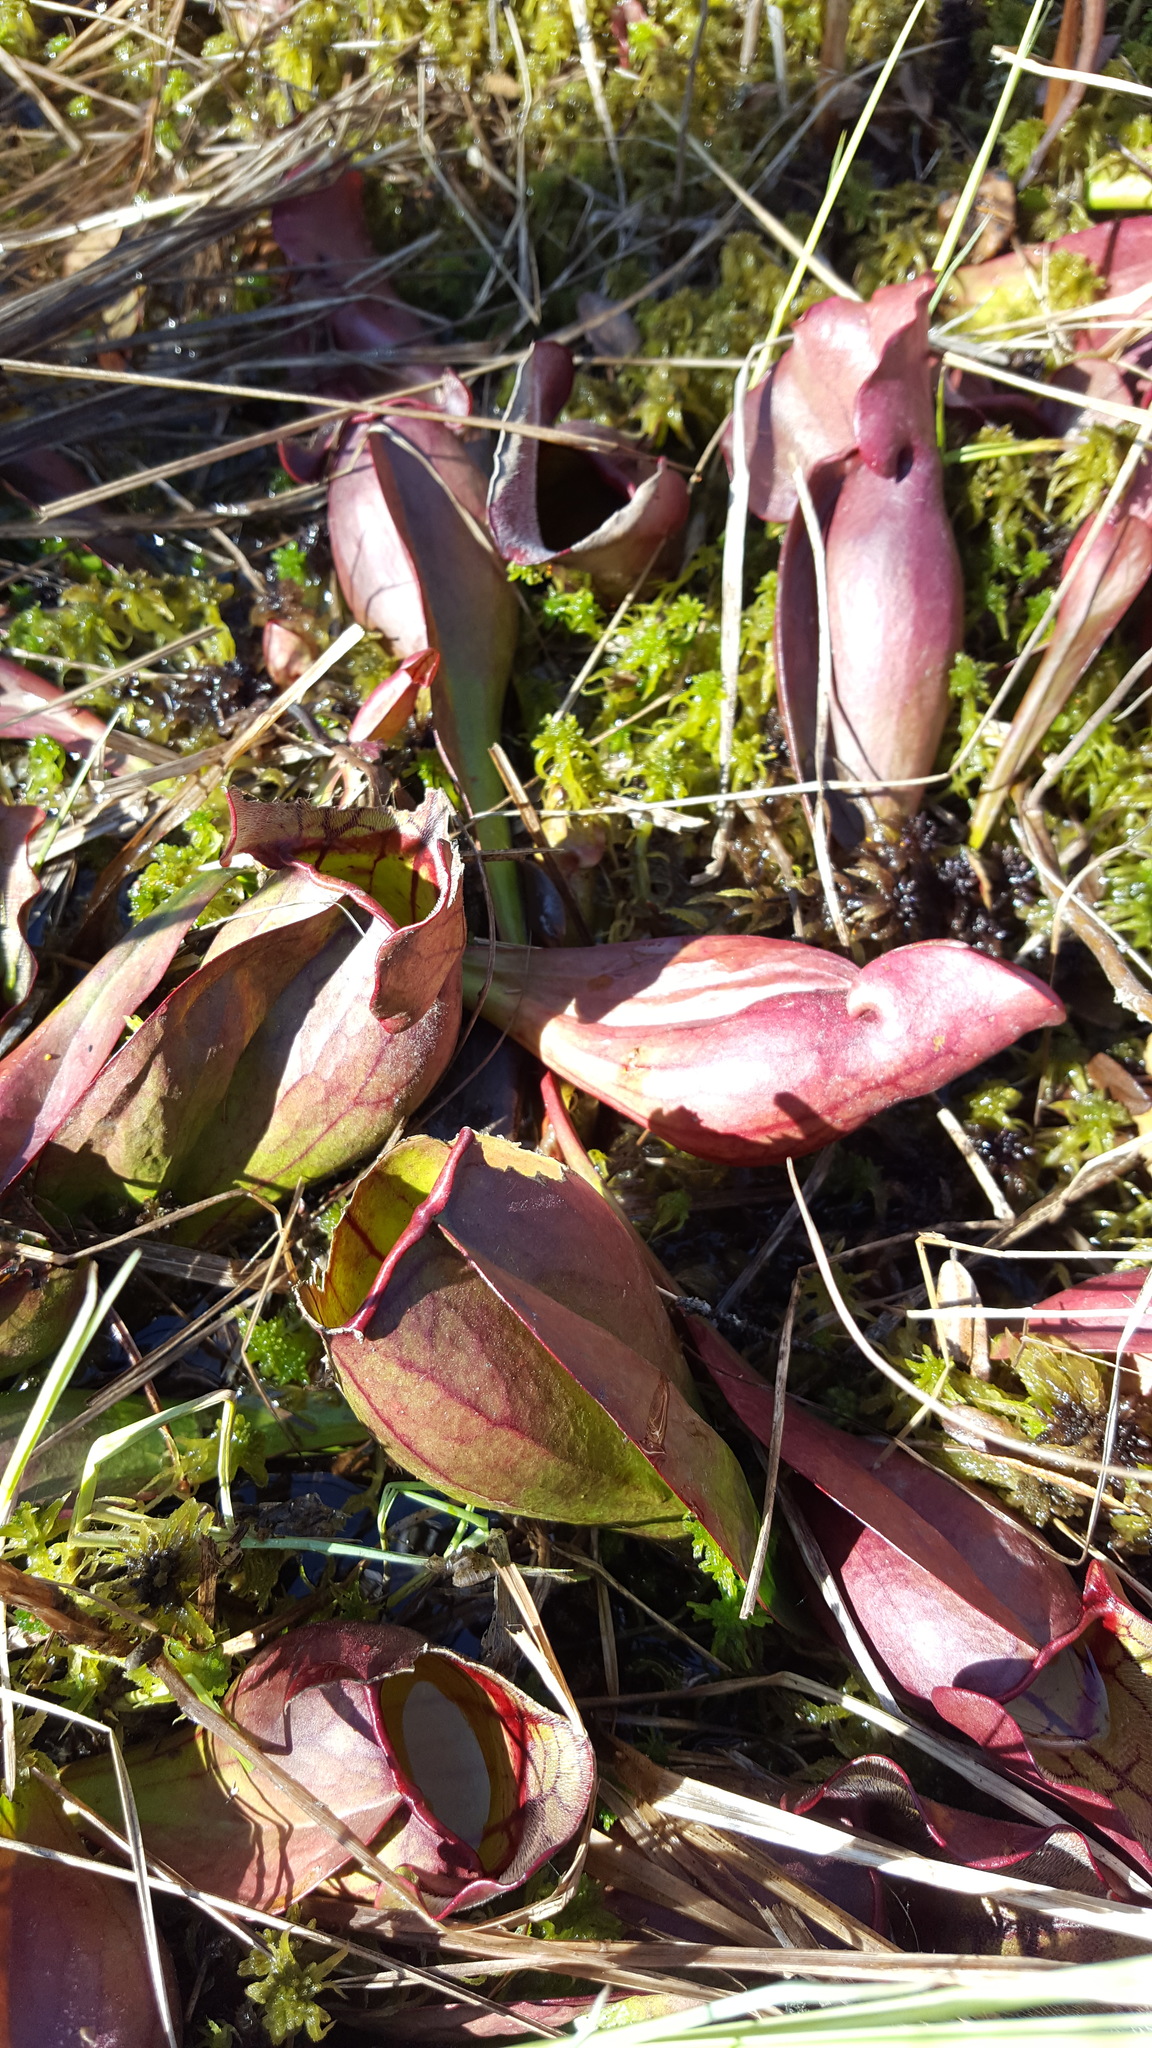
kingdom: Plantae
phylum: Tracheophyta
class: Magnoliopsida
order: Ericales
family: Sarraceniaceae
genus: Sarracenia
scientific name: Sarracenia purpurea
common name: Pitcherplant
